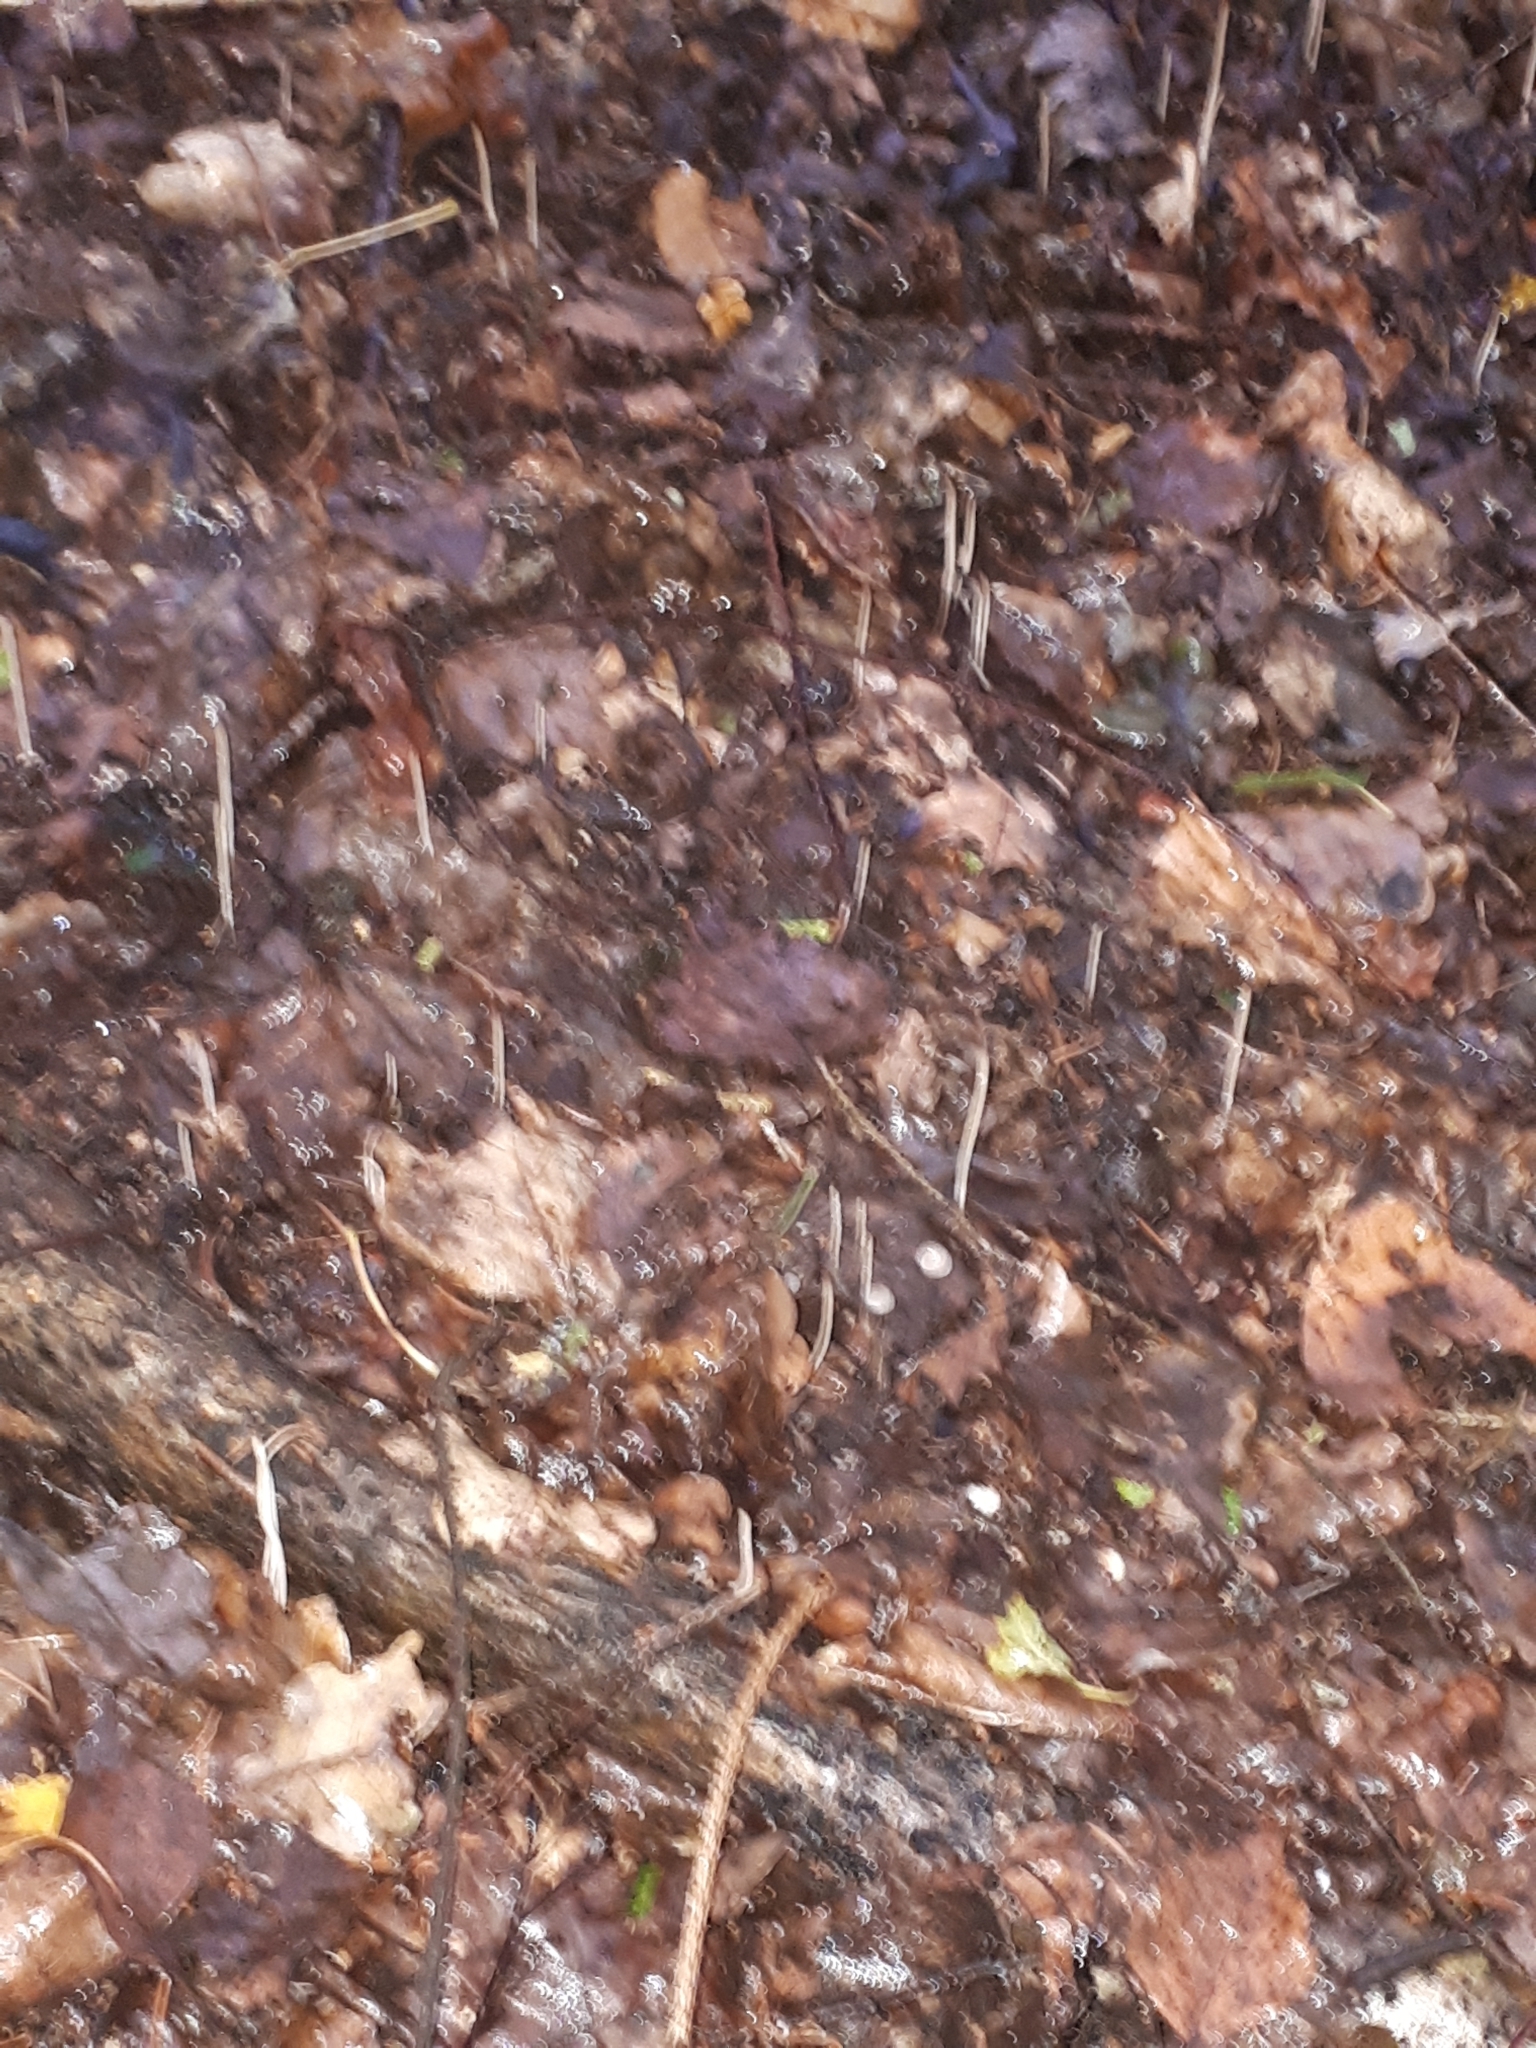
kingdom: Fungi
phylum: Basidiomycota
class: Agaricomycetes
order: Agaricales
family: Typhulaceae
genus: Typhula
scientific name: Typhula juncea
